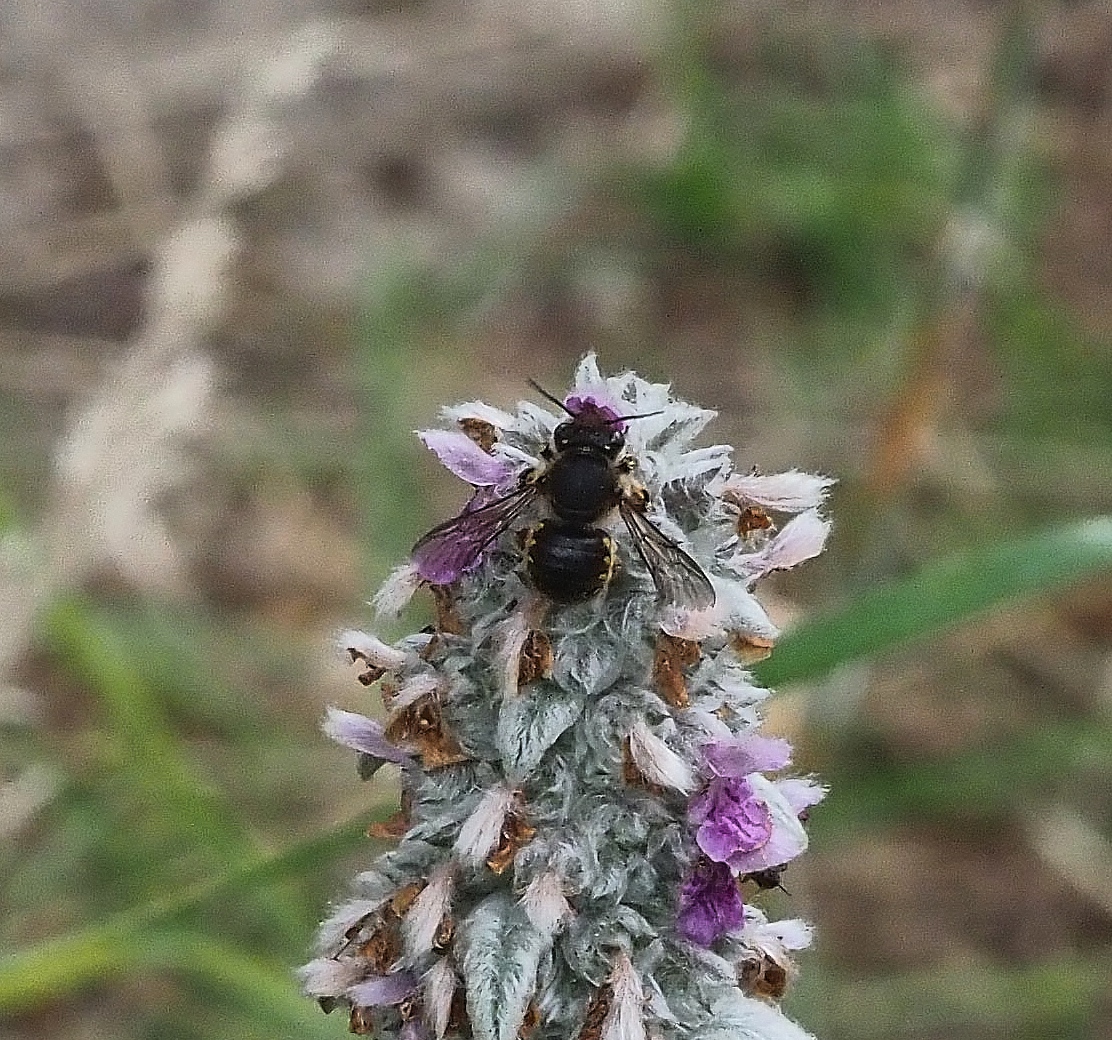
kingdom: Animalia
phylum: Arthropoda
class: Insecta
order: Hymenoptera
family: Megachilidae
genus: Anthidium
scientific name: Anthidium manicatum
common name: Wool carder bee
